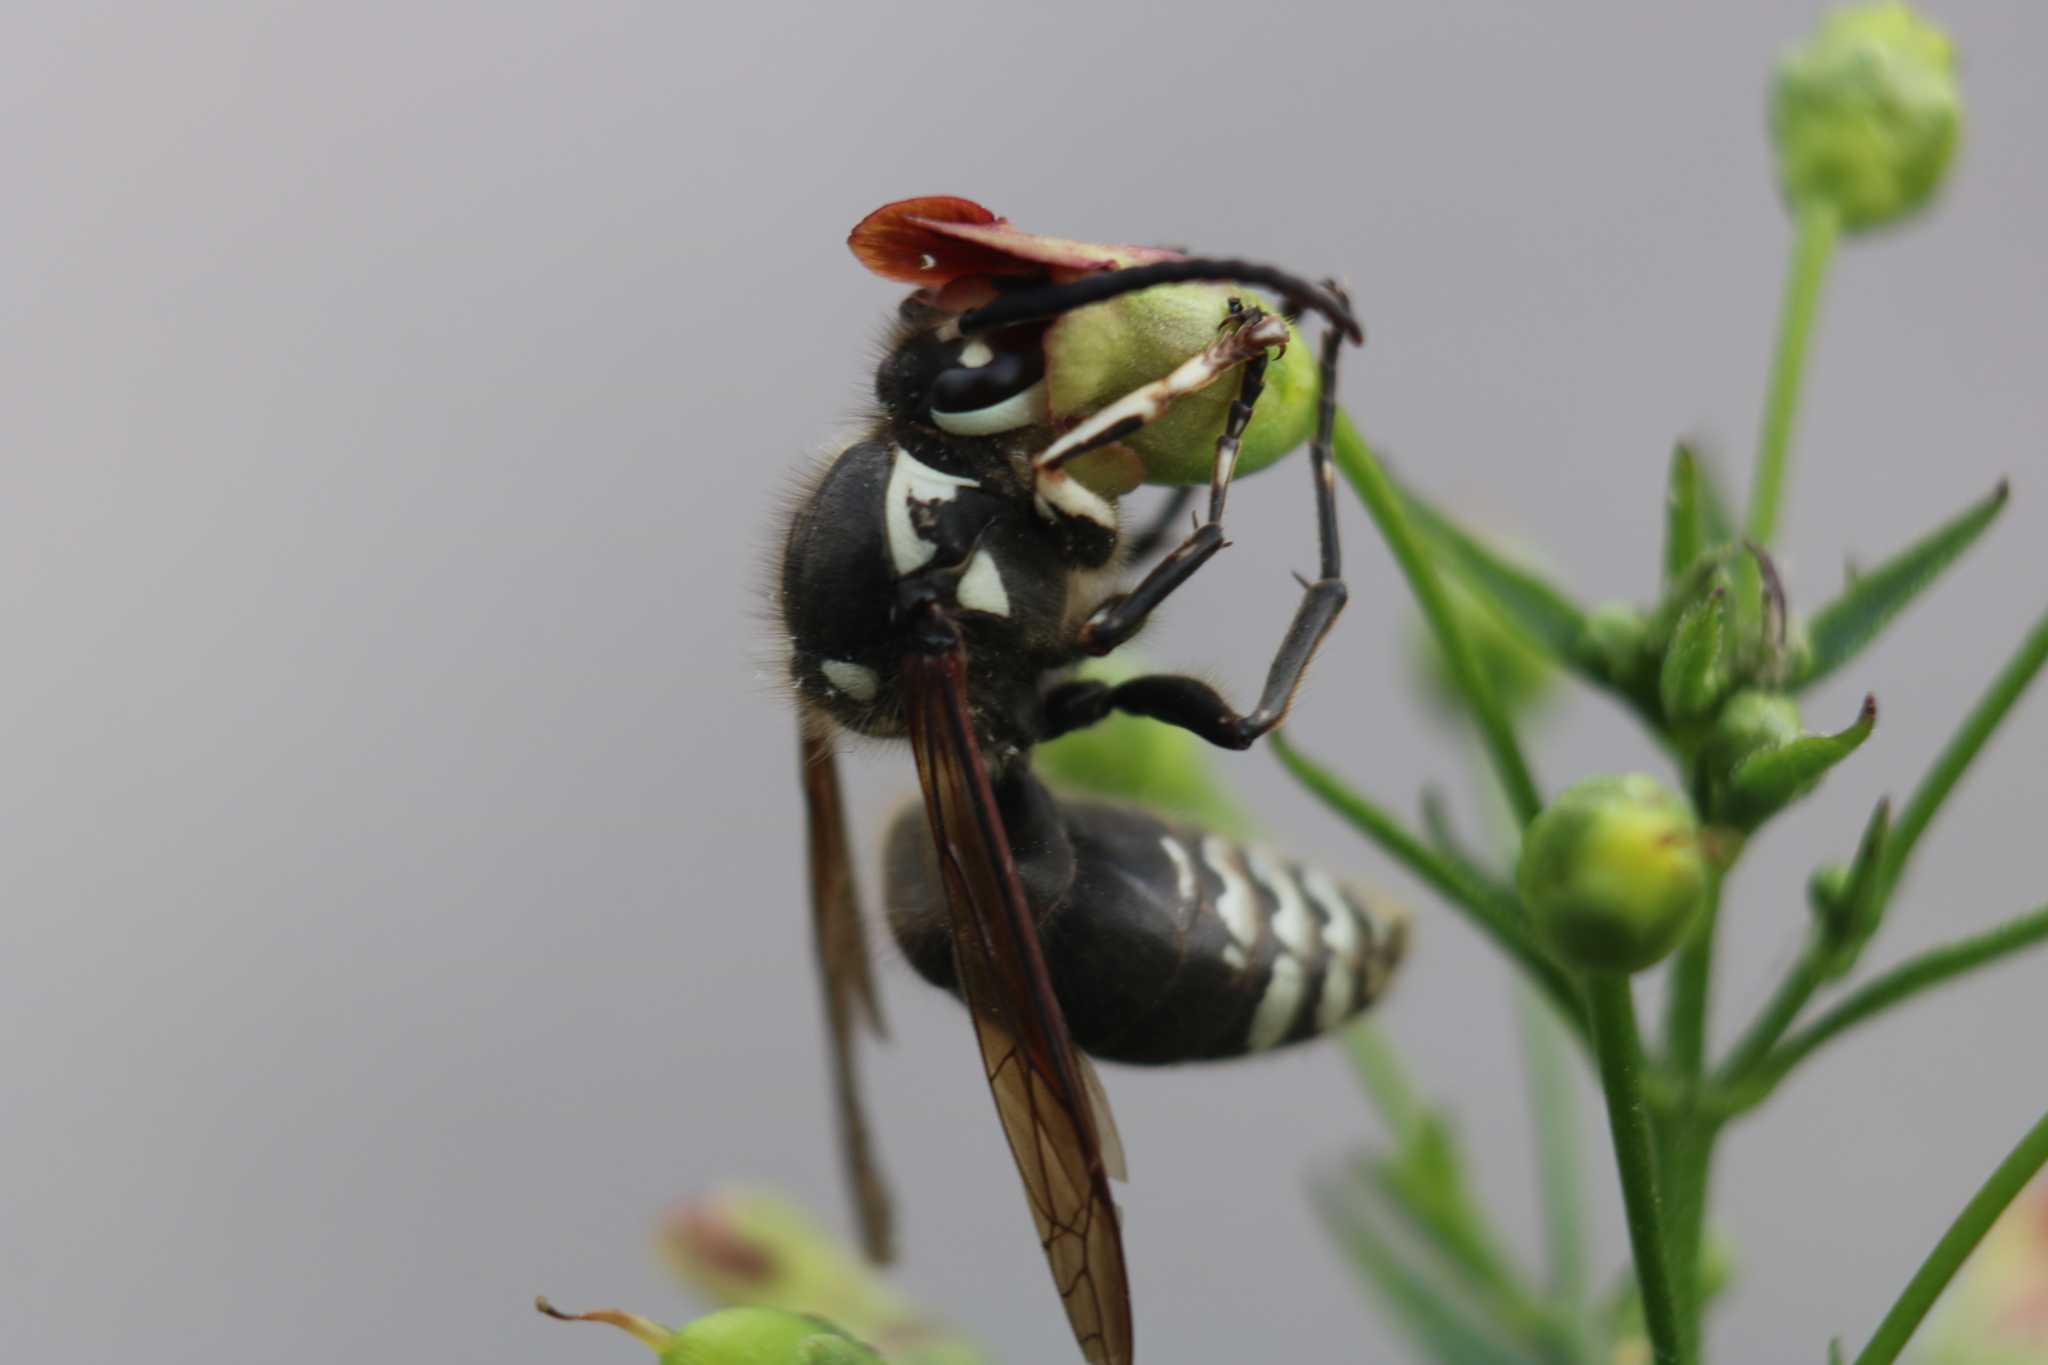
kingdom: Animalia
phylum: Arthropoda
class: Insecta
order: Hymenoptera
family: Vespidae
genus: Dolichovespula
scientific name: Dolichovespula maculata
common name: Bald-faced hornet
